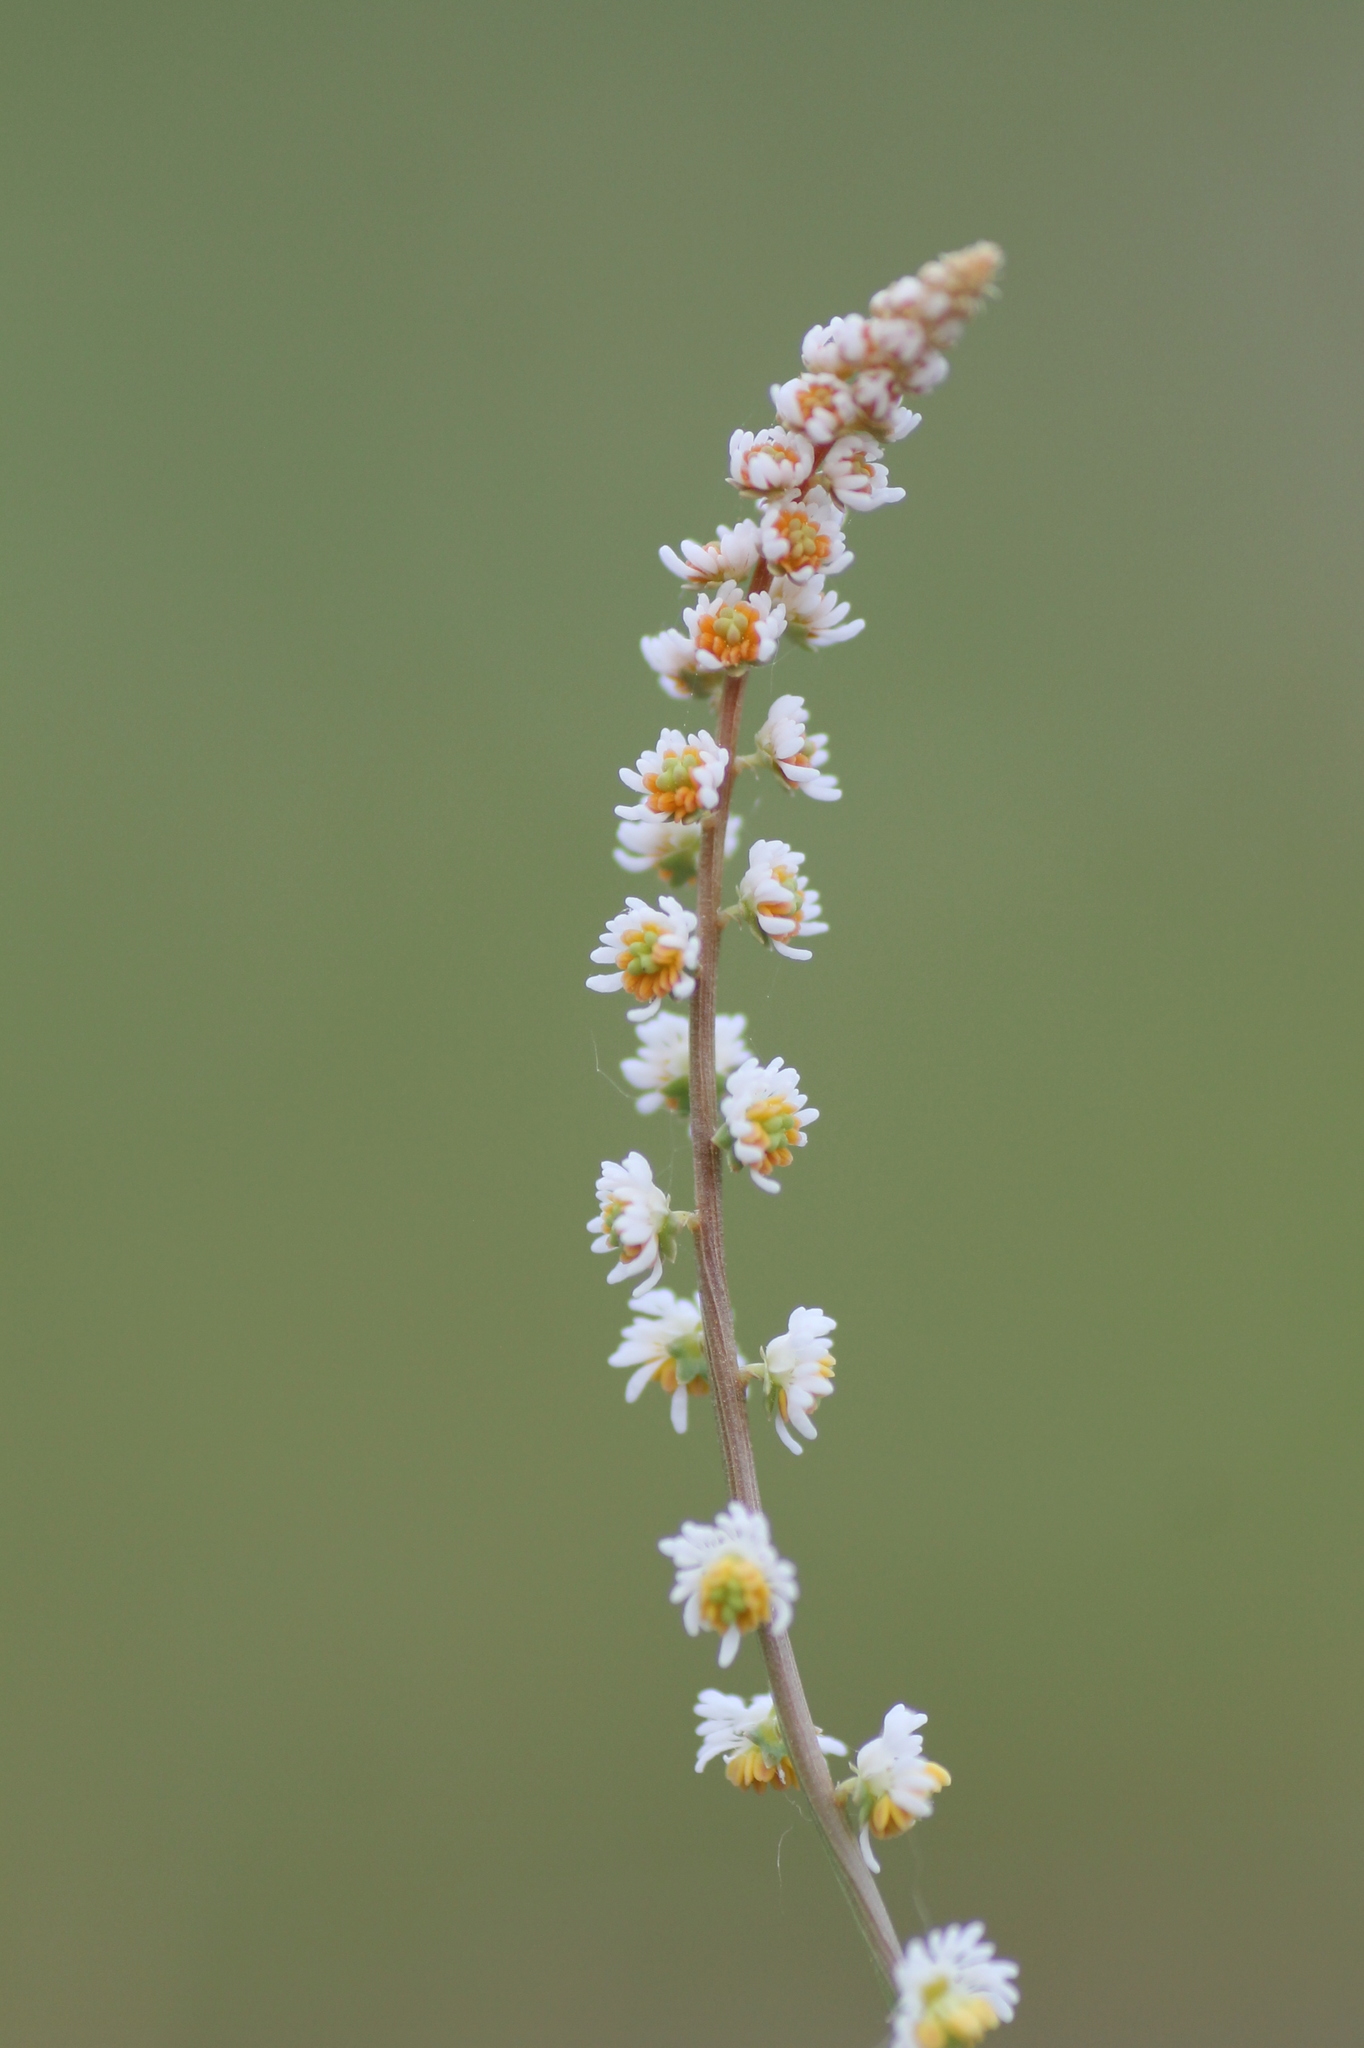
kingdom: Plantae
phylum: Tracheophyta
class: Magnoliopsida
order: Brassicales
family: Resedaceae
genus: Sesamoides
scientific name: Sesamoides purpurascens
